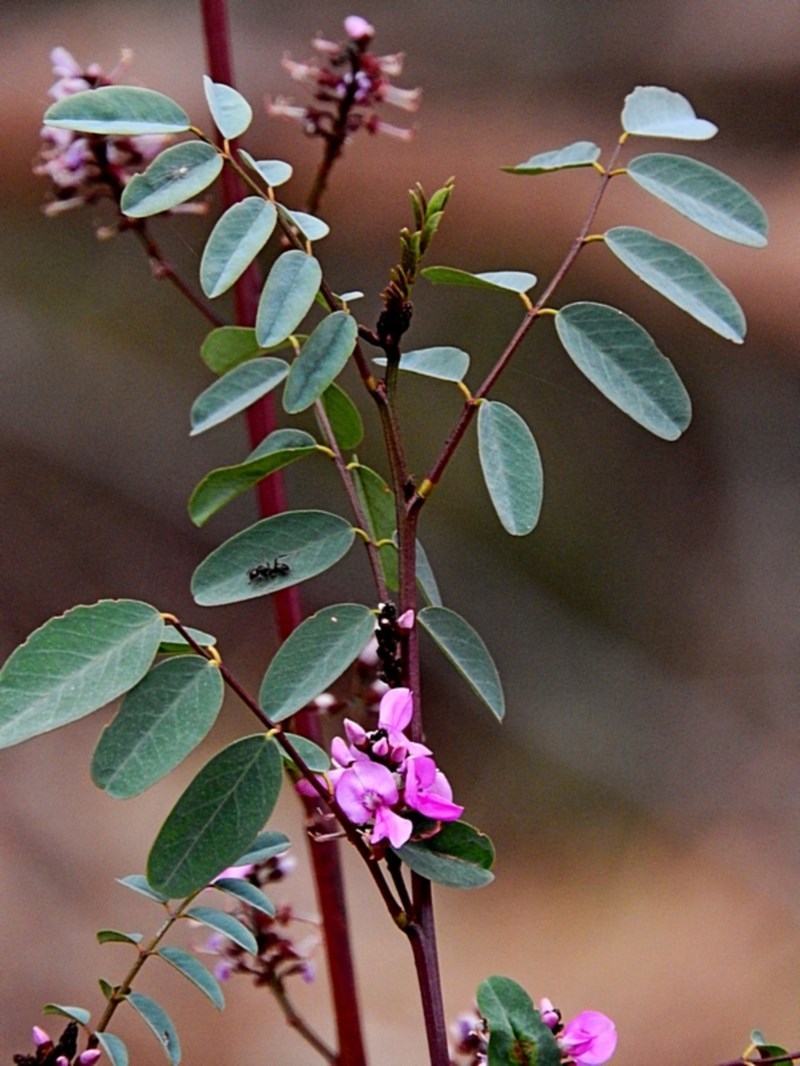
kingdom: Plantae
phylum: Tracheophyta
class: Magnoliopsida
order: Fabales
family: Fabaceae
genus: Indigofera
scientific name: Indigofera australis
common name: Australian indigo
